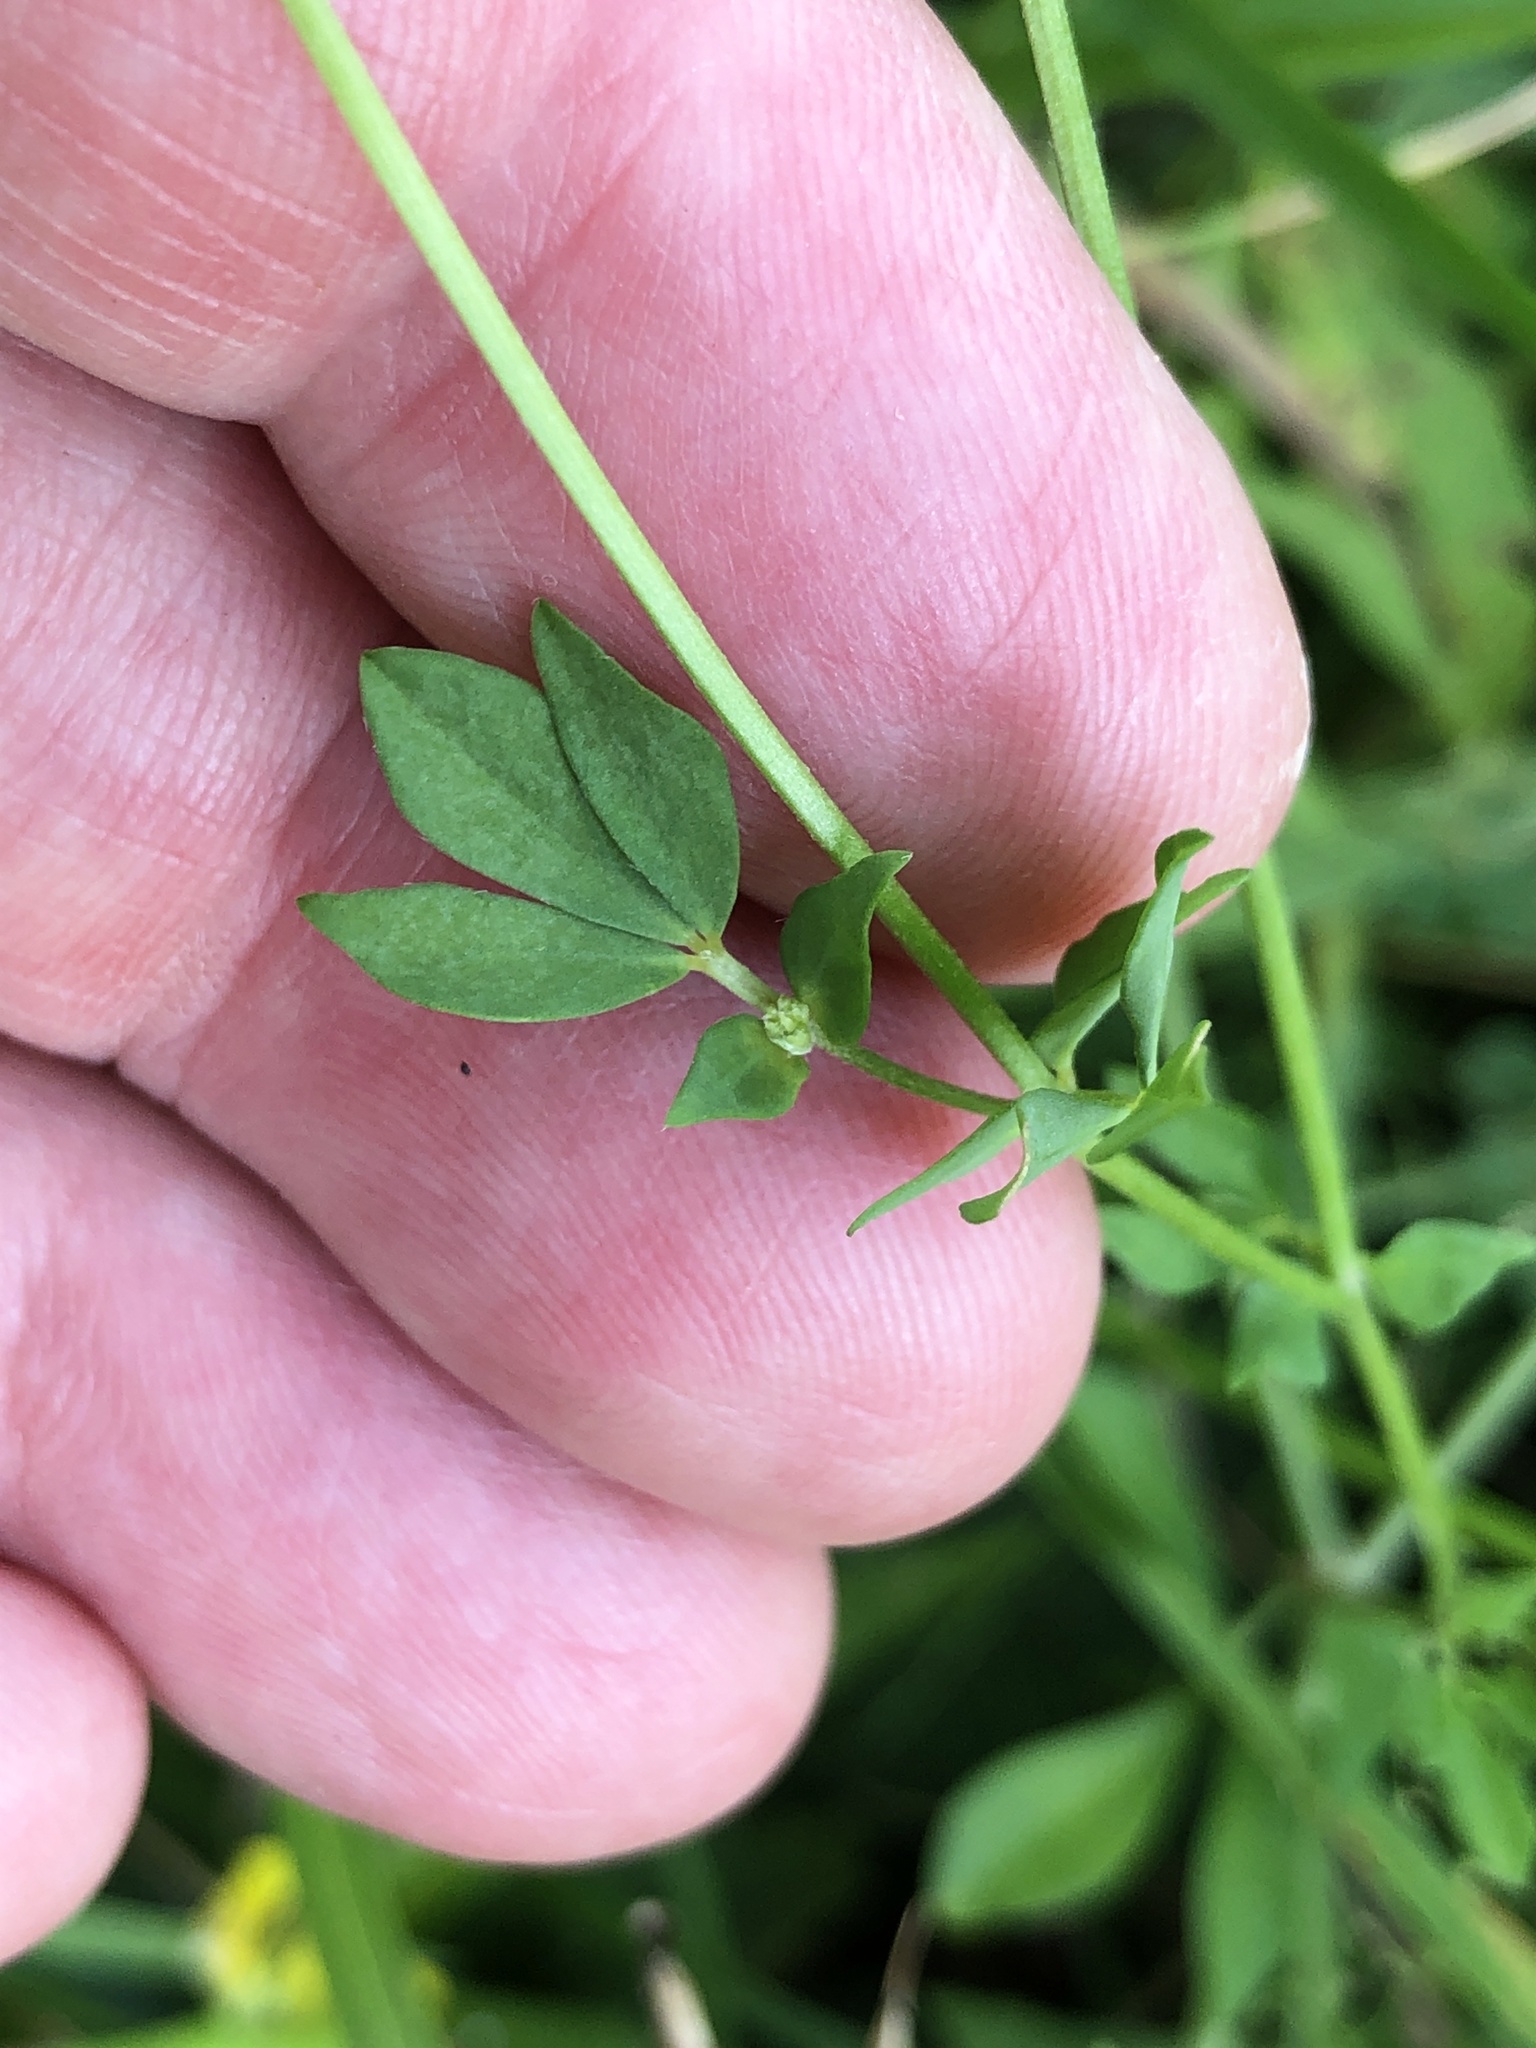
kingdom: Plantae
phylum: Tracheophyta
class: Magnoliopsida
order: Fabales
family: Fabaceae
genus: Lotus
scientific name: Lotus corniculatus
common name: Common bird's-foot-trefoil
